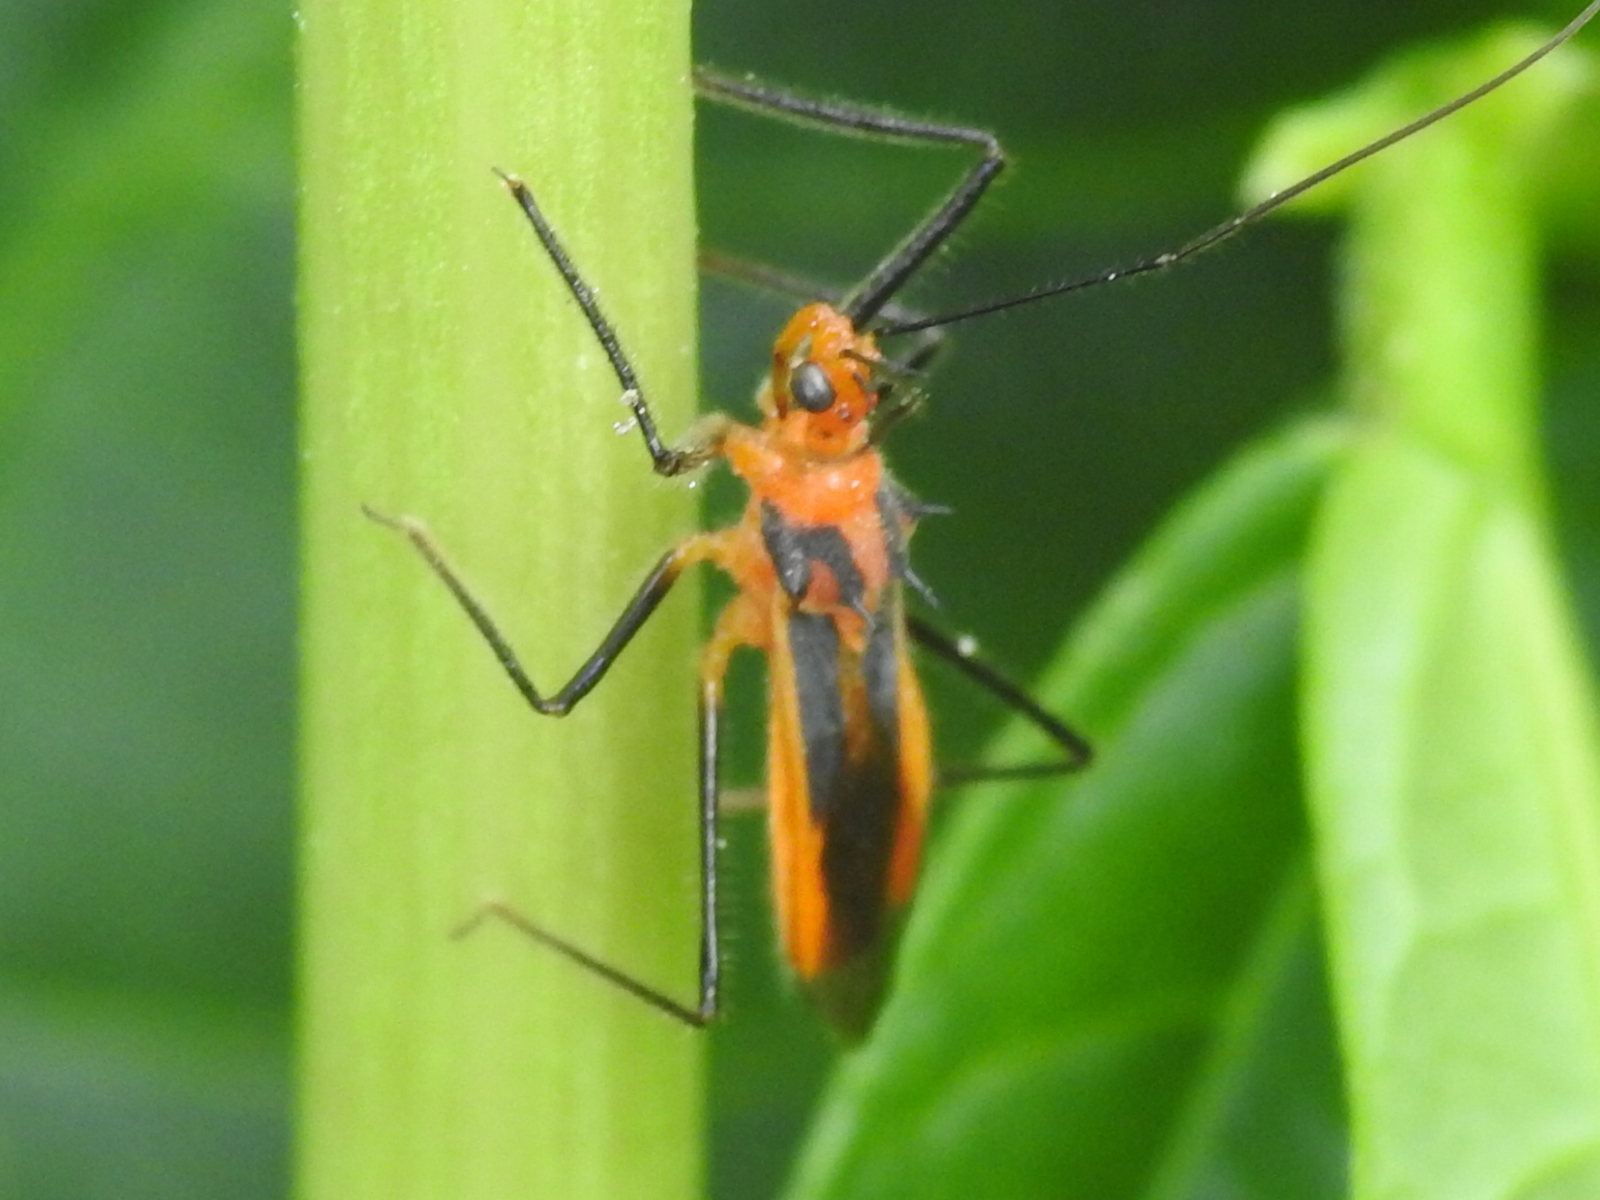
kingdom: Animalia
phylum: Arthropoda
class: Insecta
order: Hemiptera
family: Reduviidae
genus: Repipta
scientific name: Repipta taurus
